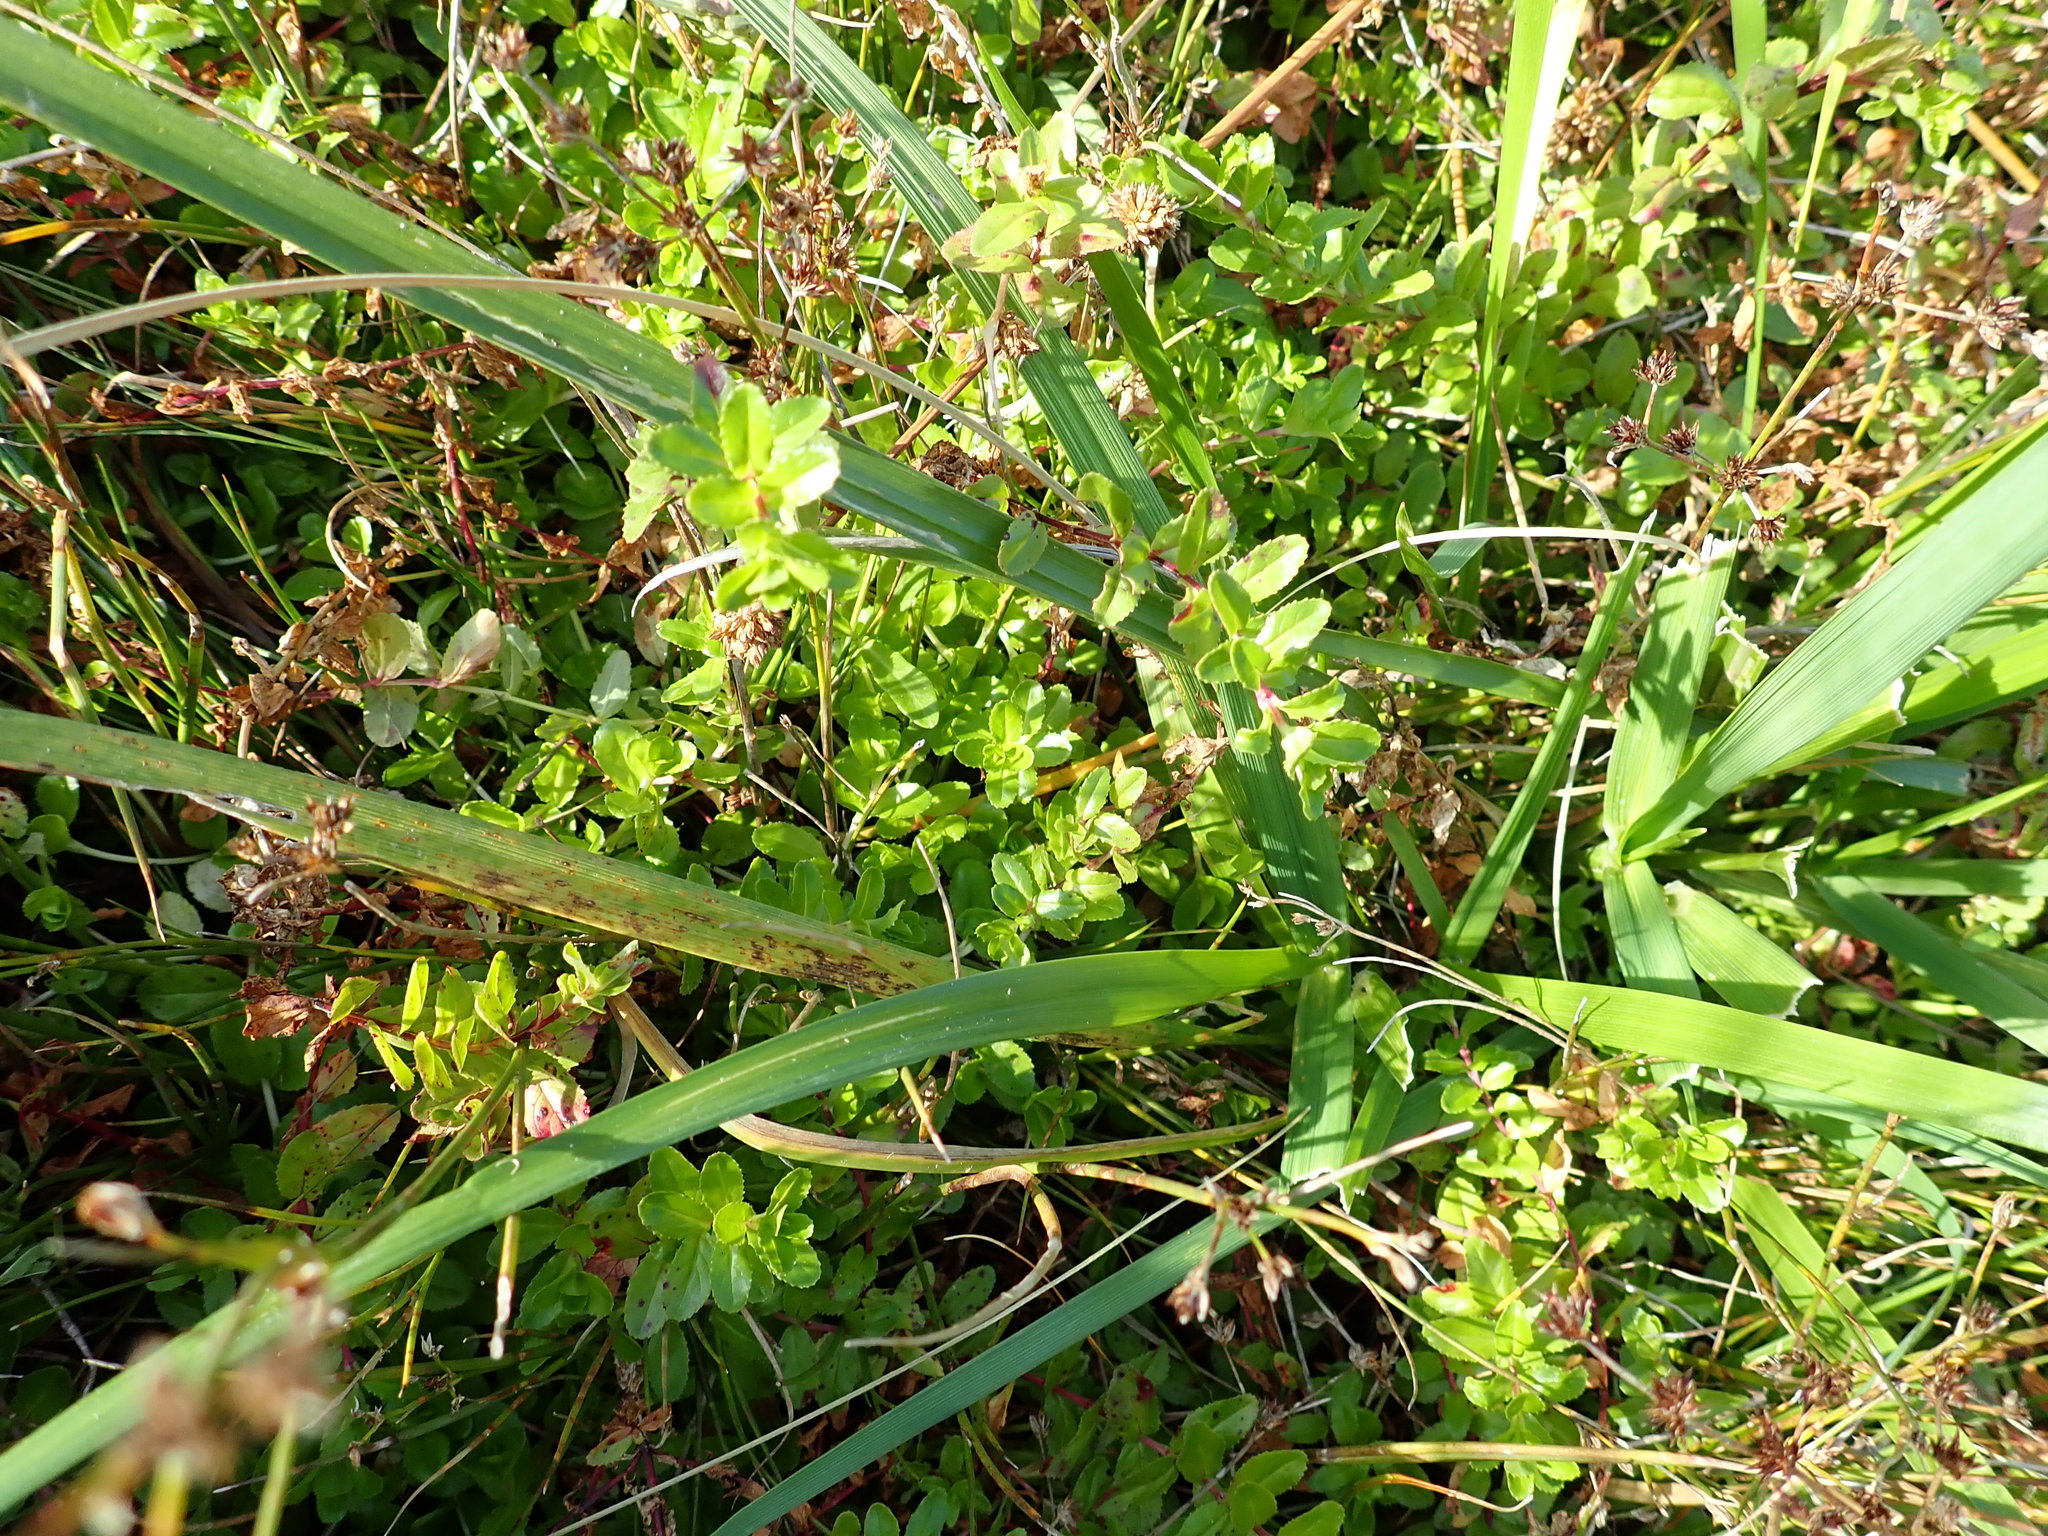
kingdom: Plantae
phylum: Tracheophyta
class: Magnoliopsida
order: Myrtales
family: Onagraceae
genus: Epilobium
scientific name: Epilobium billardiereanum
